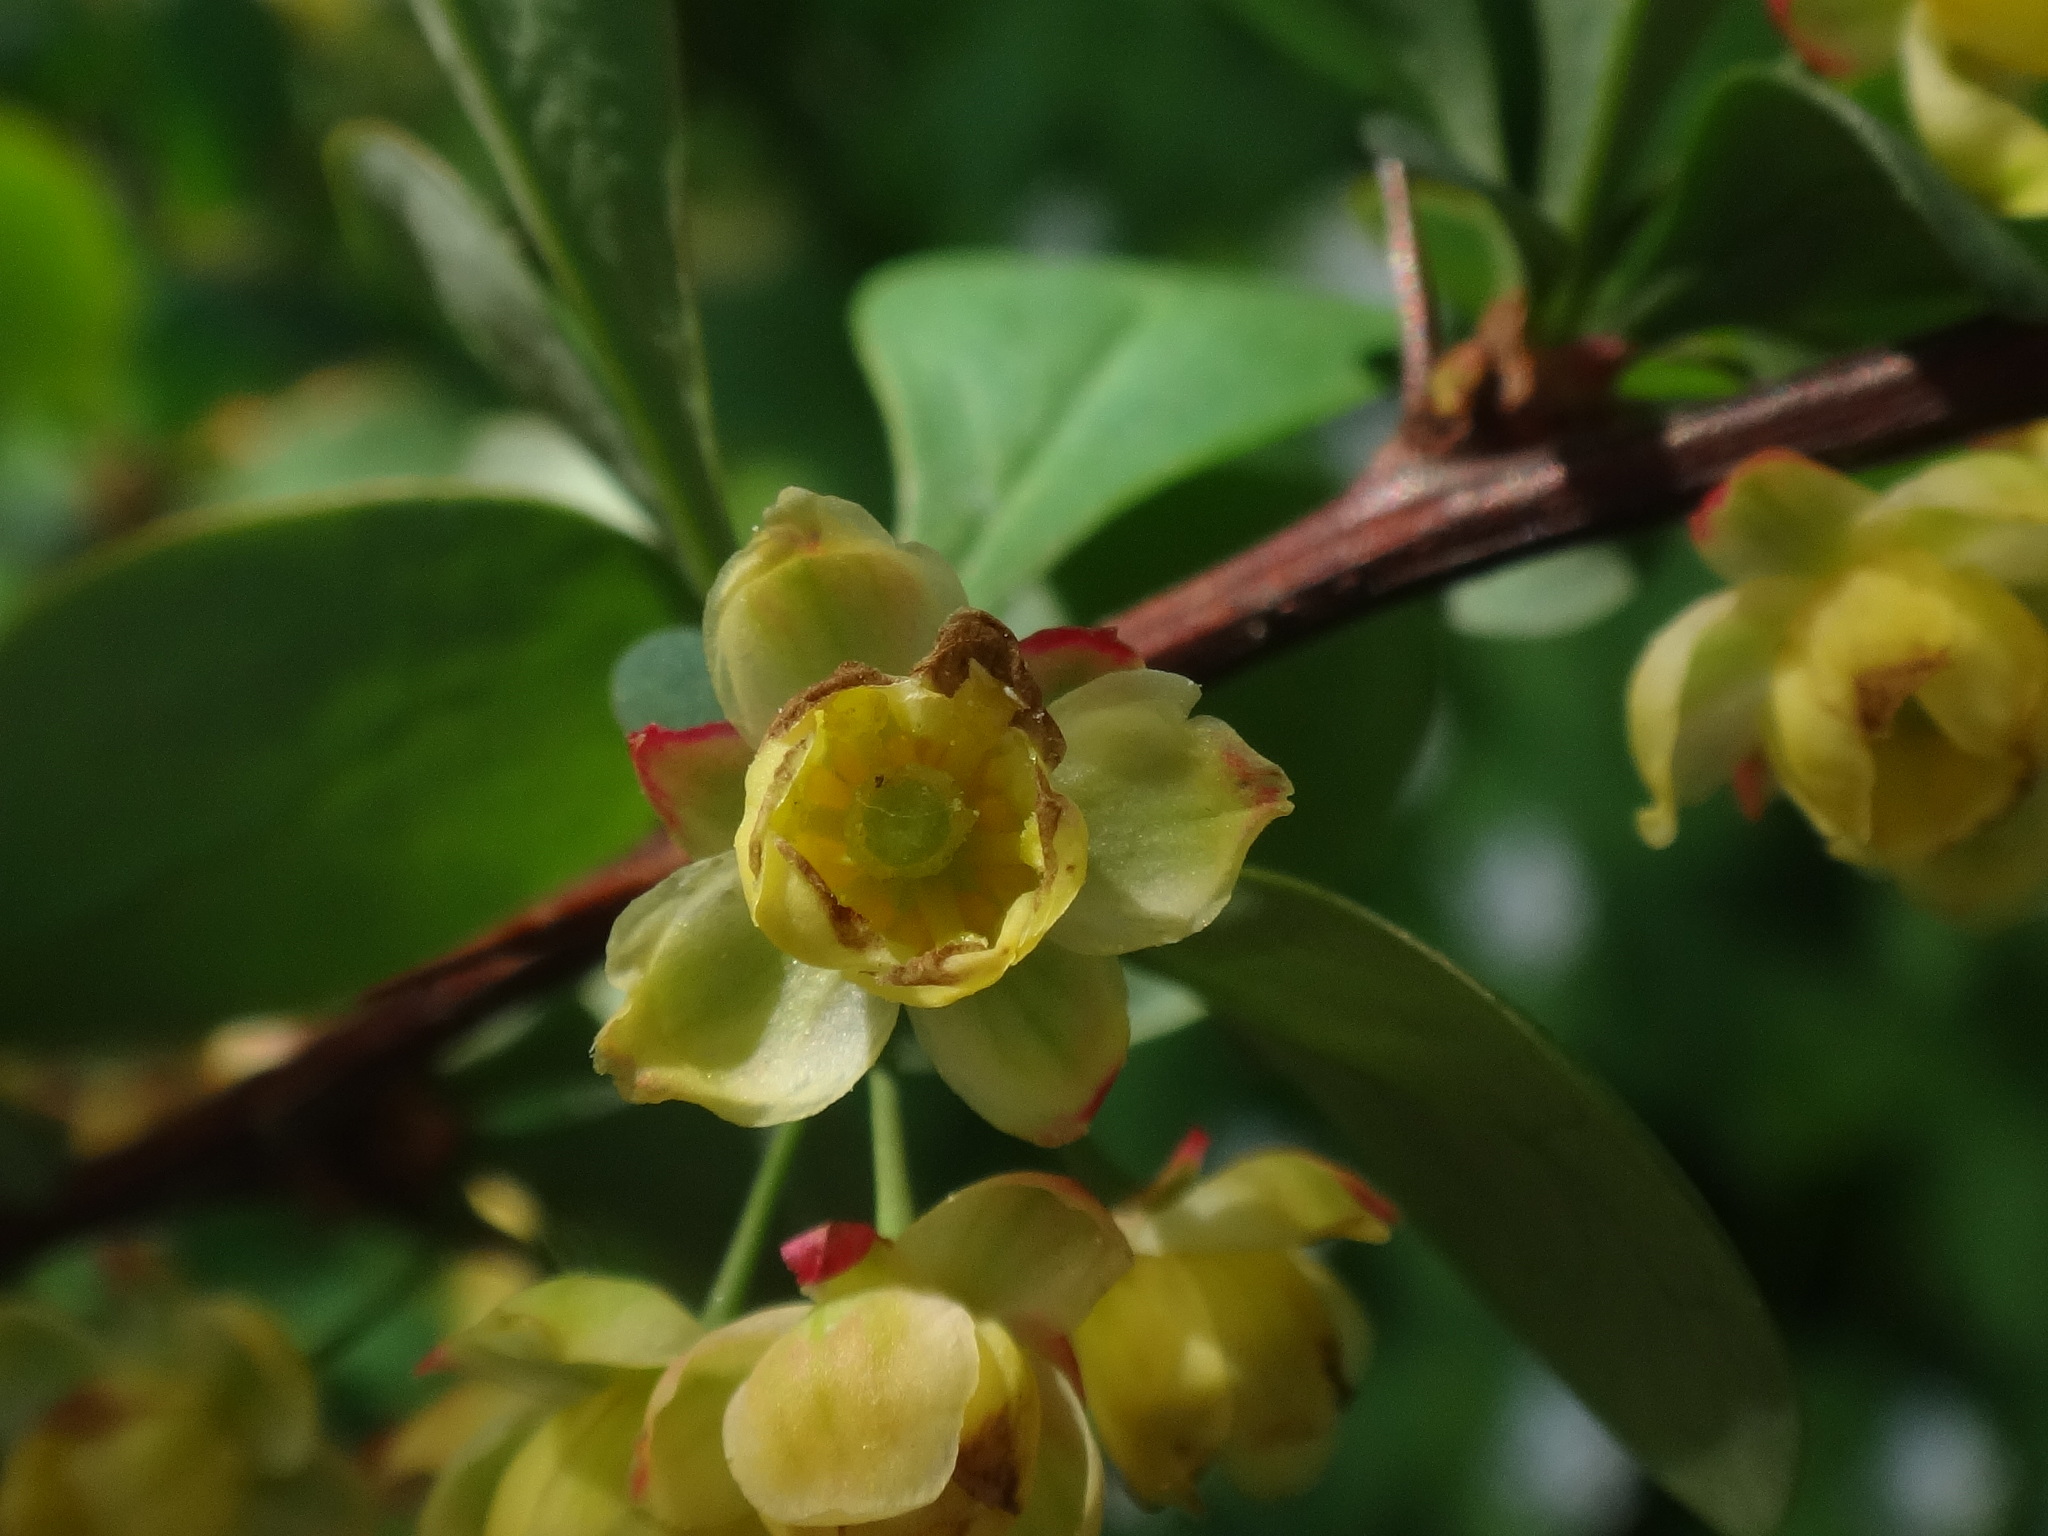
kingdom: Plantae
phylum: Tracheophyta
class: Magnoliopsida
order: Ranunculales
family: Berberidaceae
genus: Berberis
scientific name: Berberis thunbergii
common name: Japanese barberry
